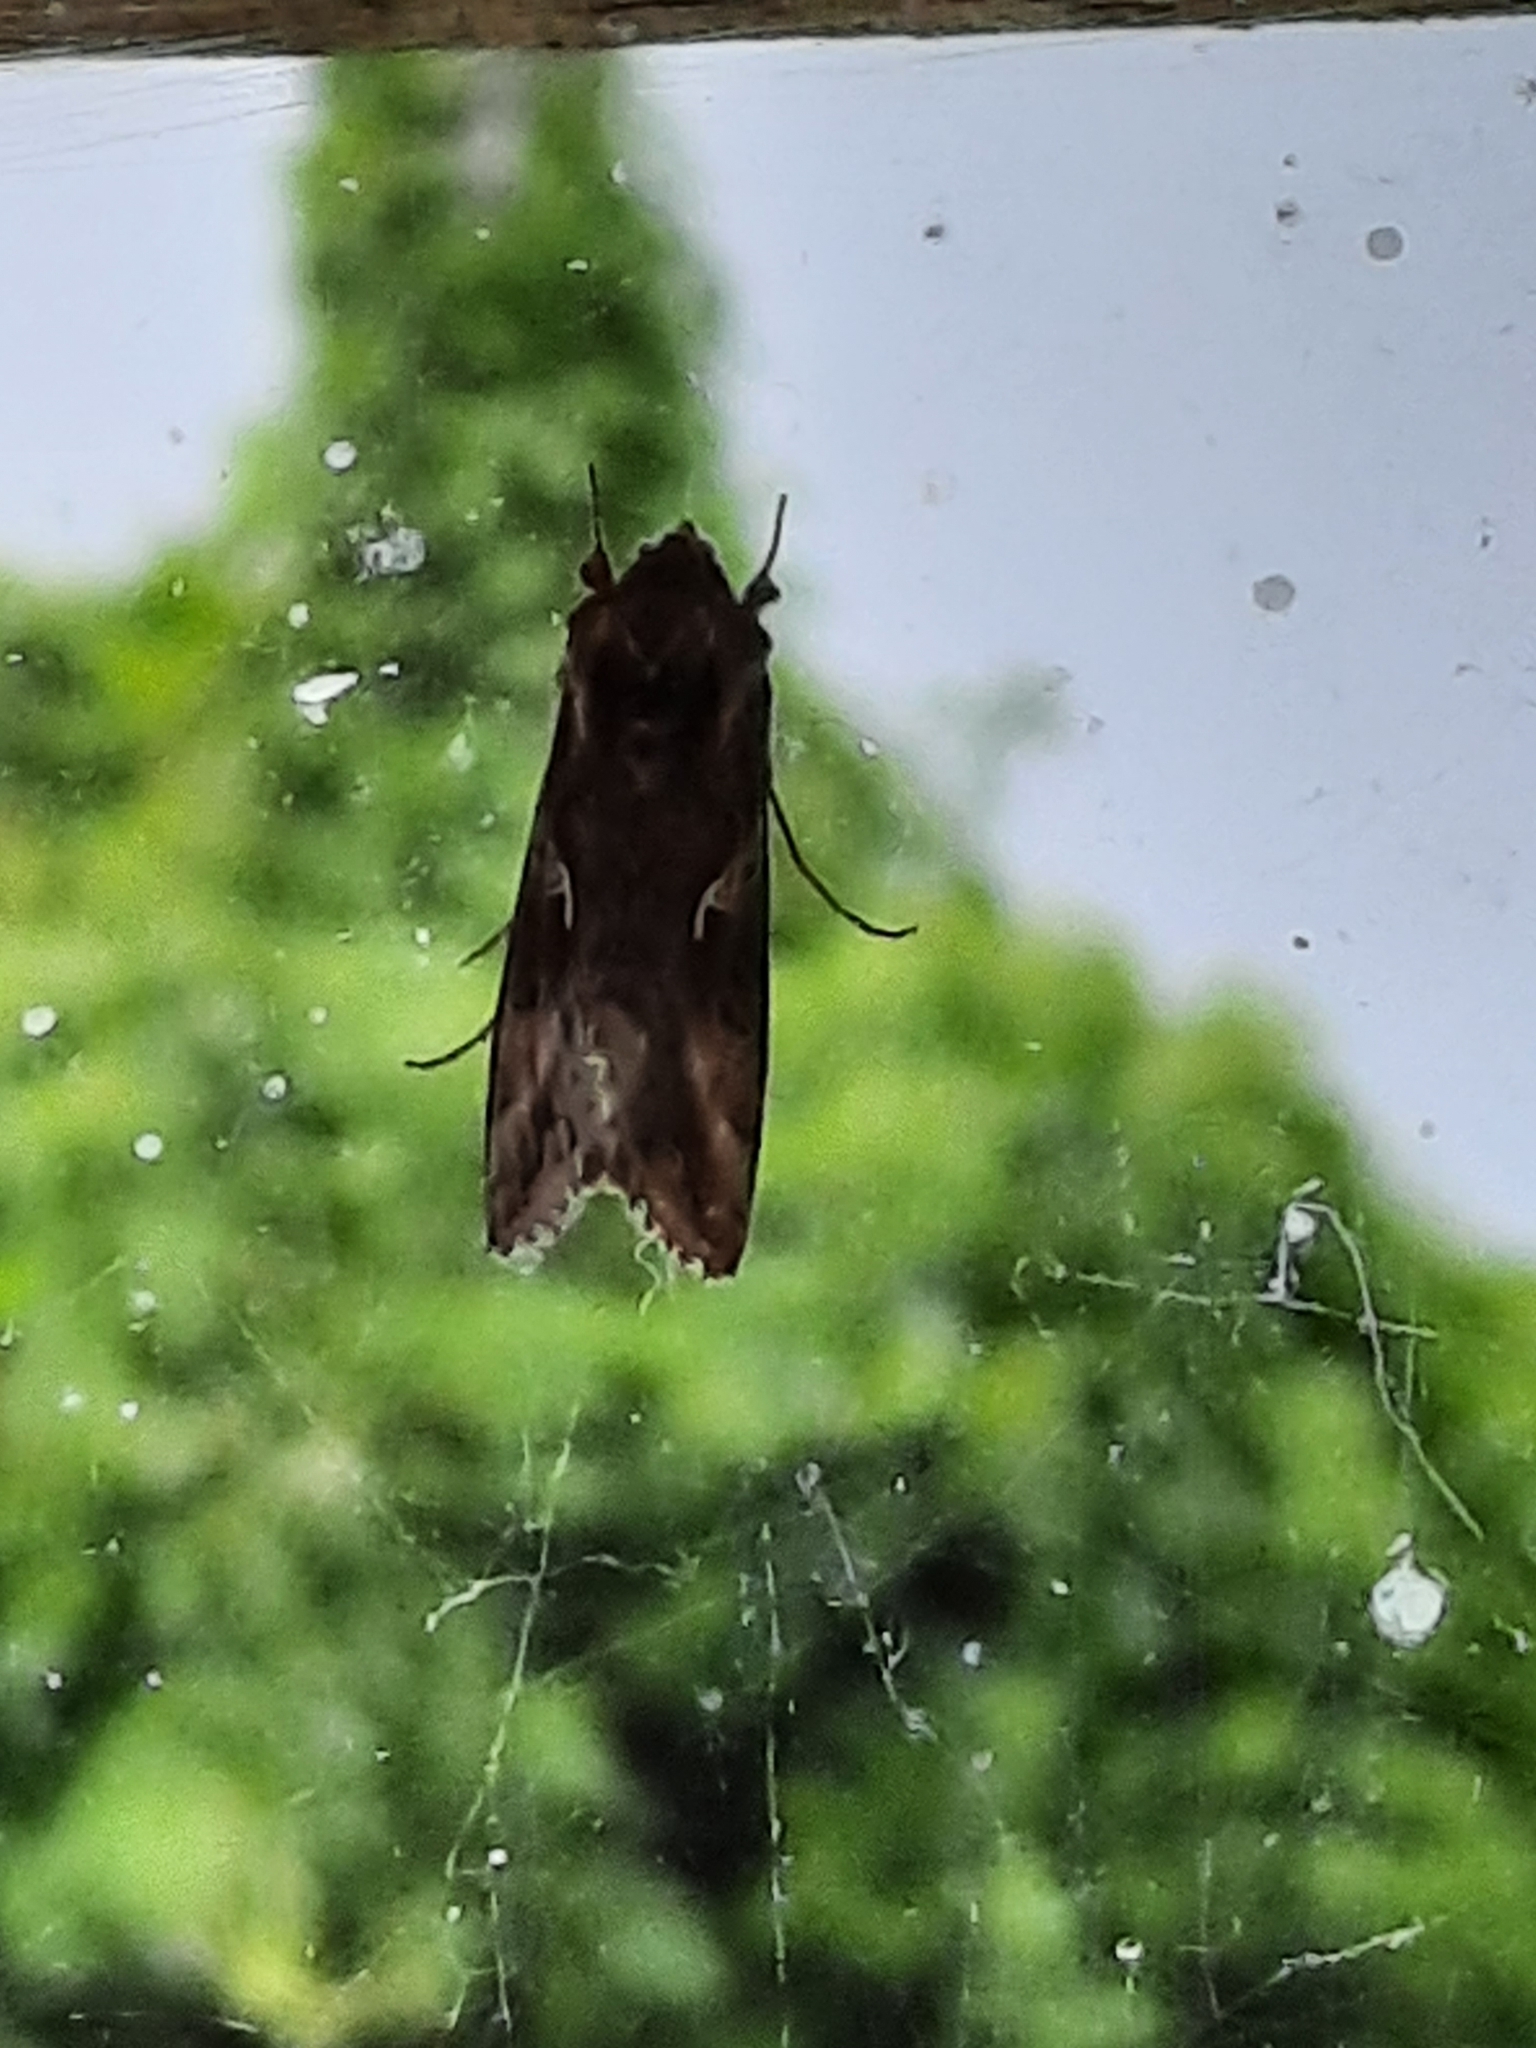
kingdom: Animalia
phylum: Arthropoda
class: Insecta
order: Lepidoptera
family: Noctuidae
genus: Autographa
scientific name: Autographa gamma
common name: Silver y
